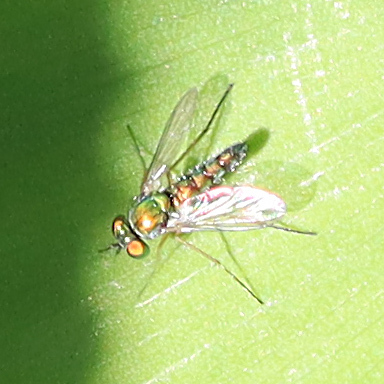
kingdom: Animalia
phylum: Arthropoda
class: Insecta
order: Diptera
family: Dolichopodidae
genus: Condylostylus
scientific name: Condylostylus flavipes
